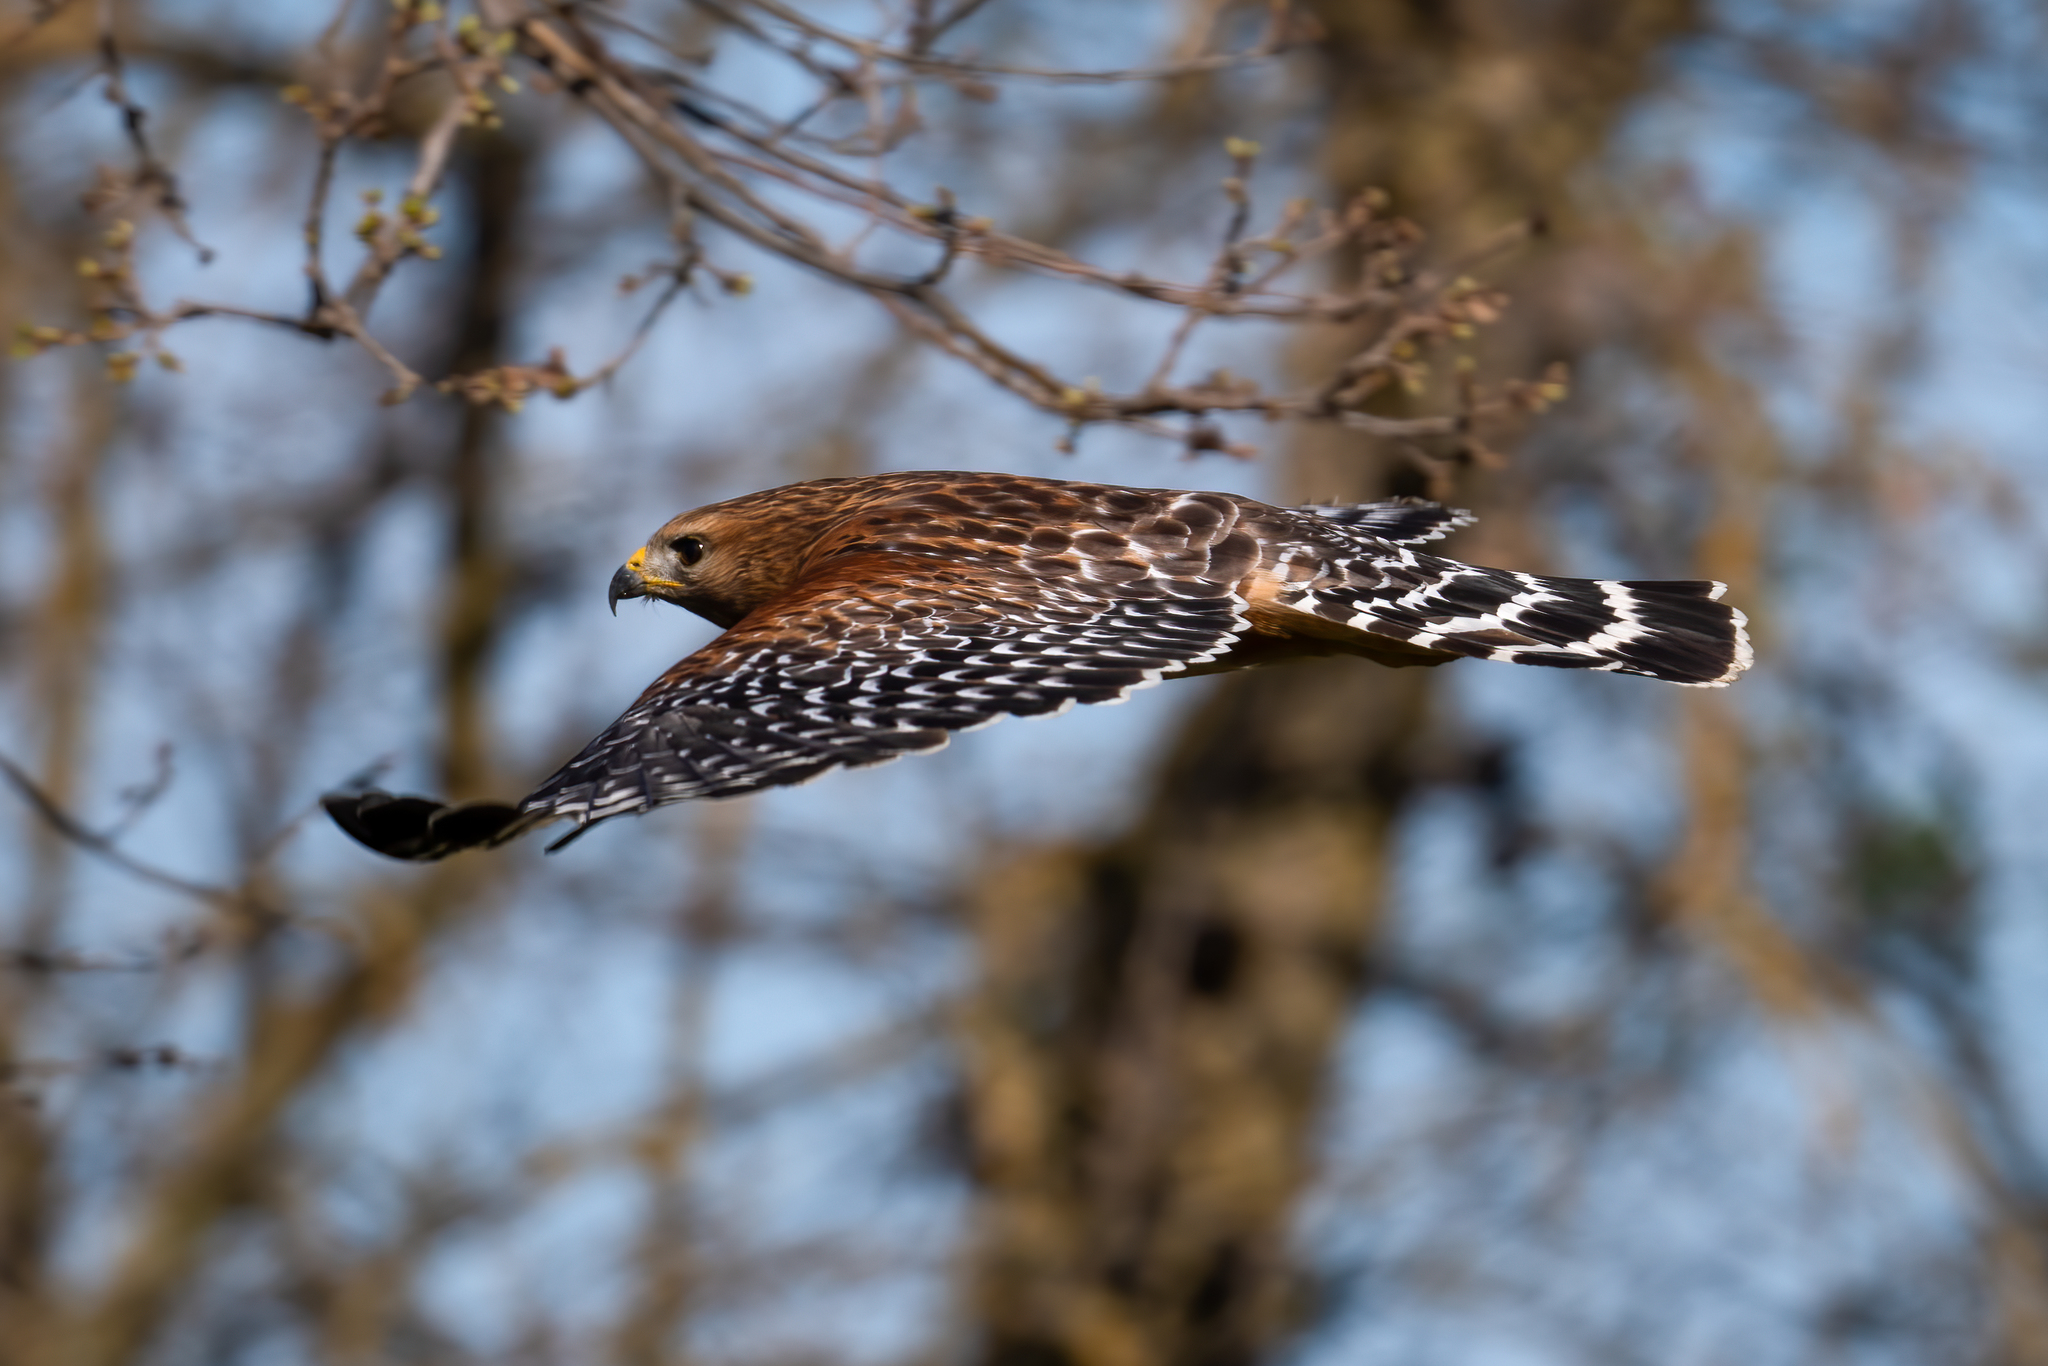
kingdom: Animalia
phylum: Chordata
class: Aves
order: Accipitriformes
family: Accipitridae
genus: Buteo
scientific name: Buteo lineatus
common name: Red-shouldered hawk
